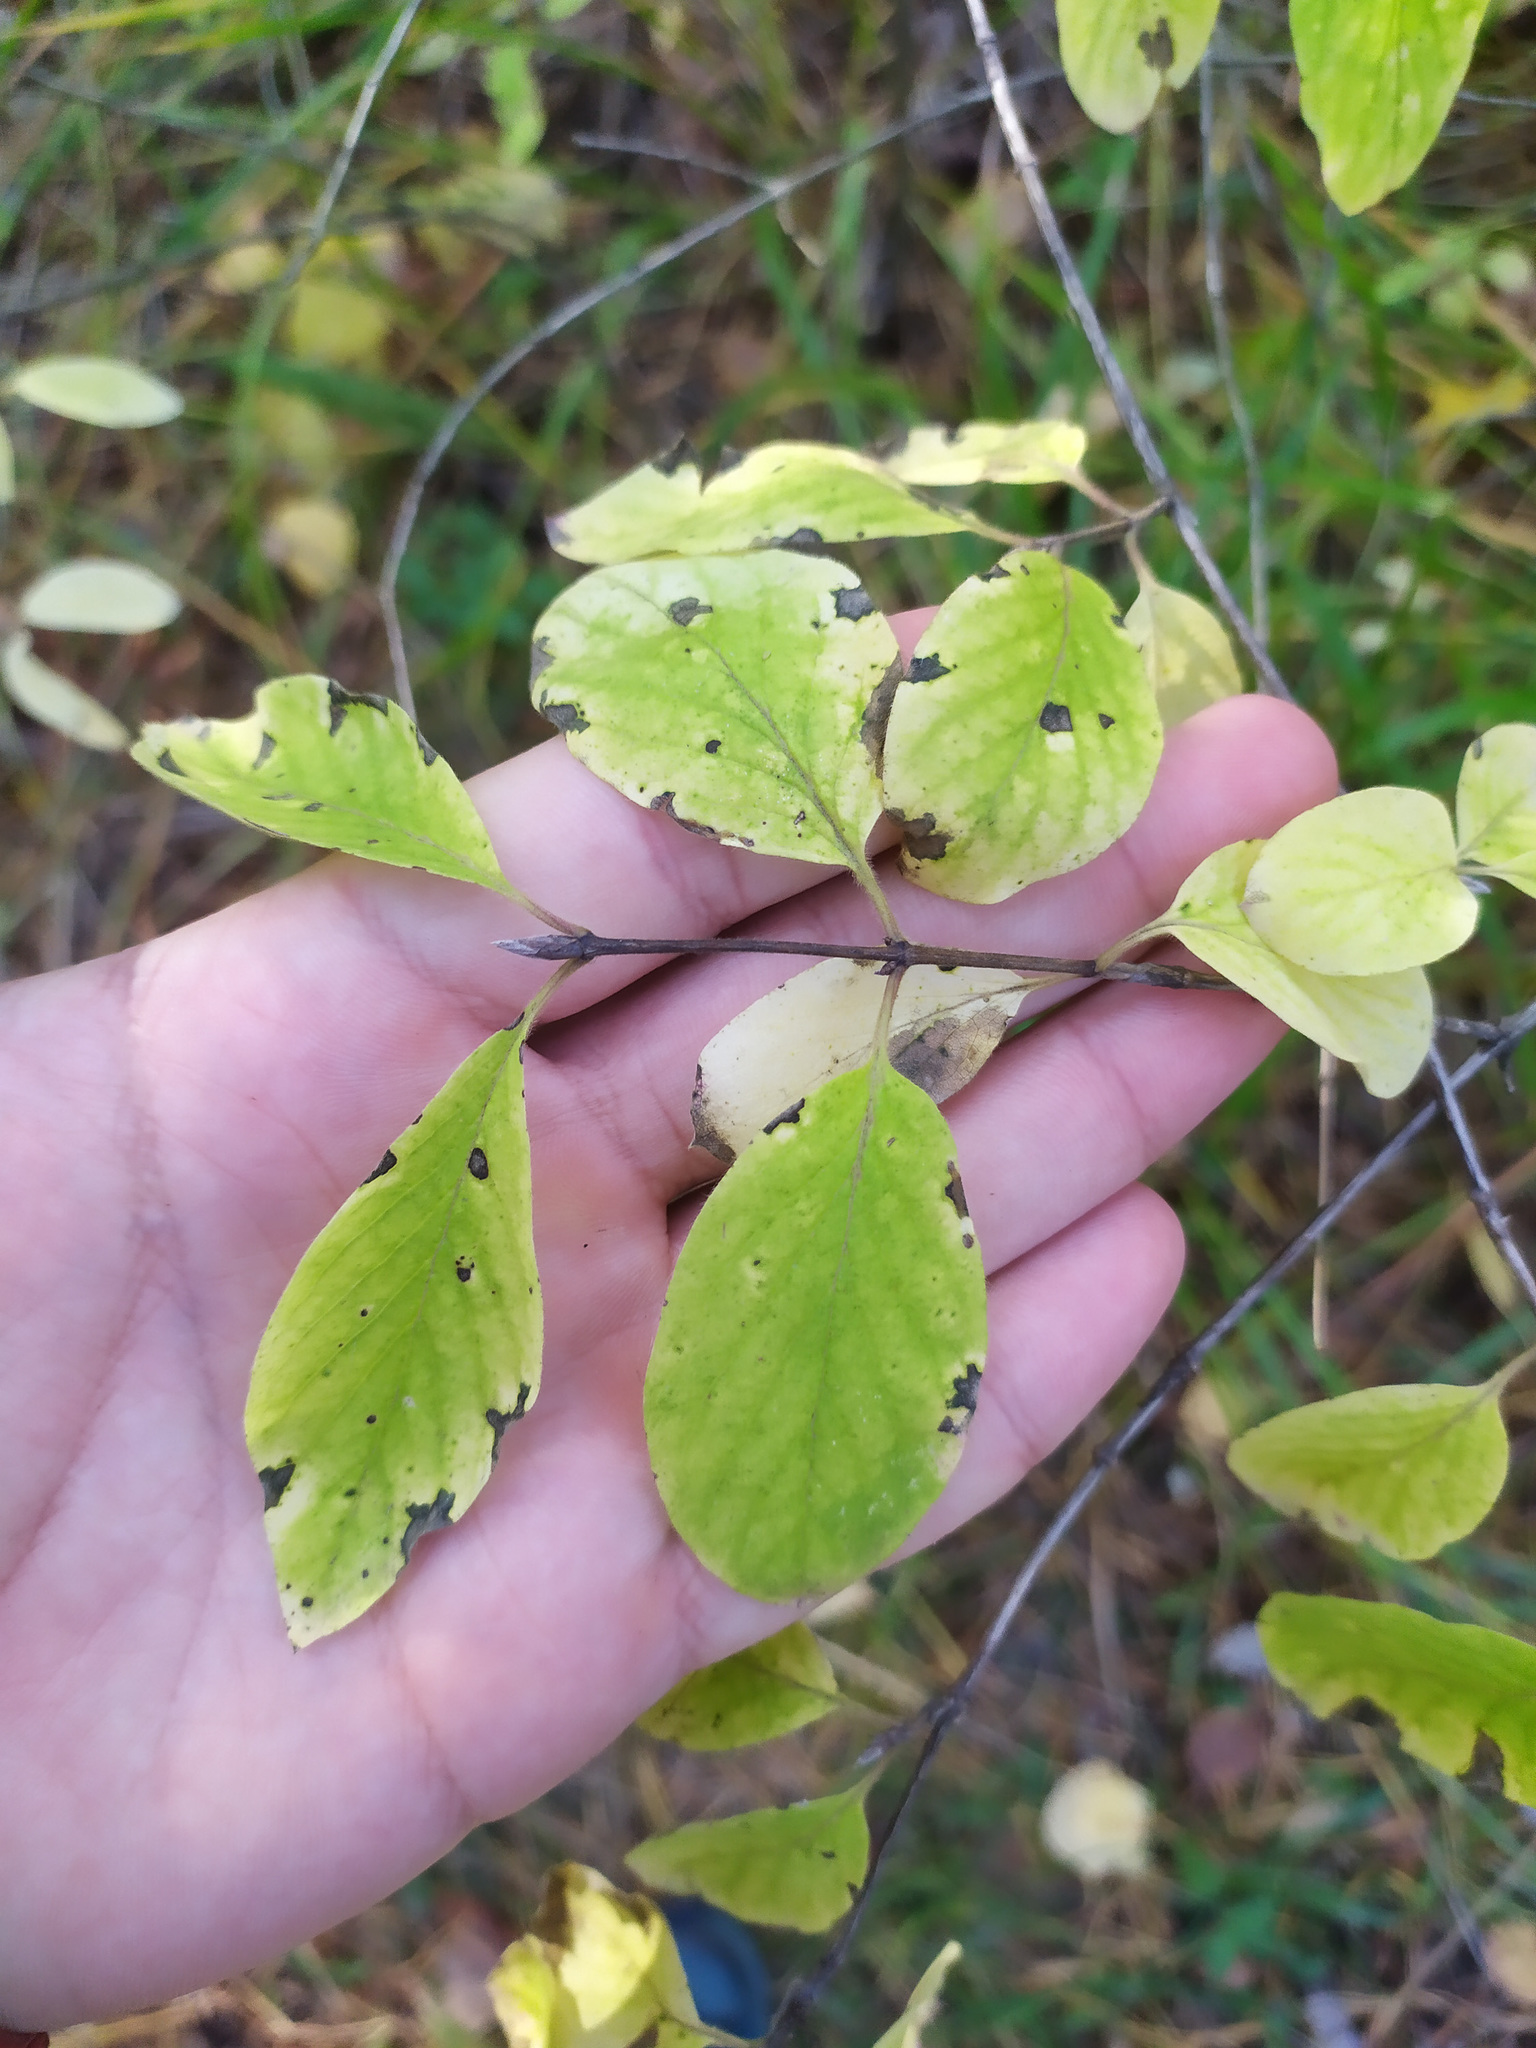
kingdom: Plantae
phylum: Tracheophyta
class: Magnoliopsida
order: Dipsacales
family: Caprifoliaceae
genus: Lonicera
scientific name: Lonicera xylosteum
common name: Fly honeysuckle
